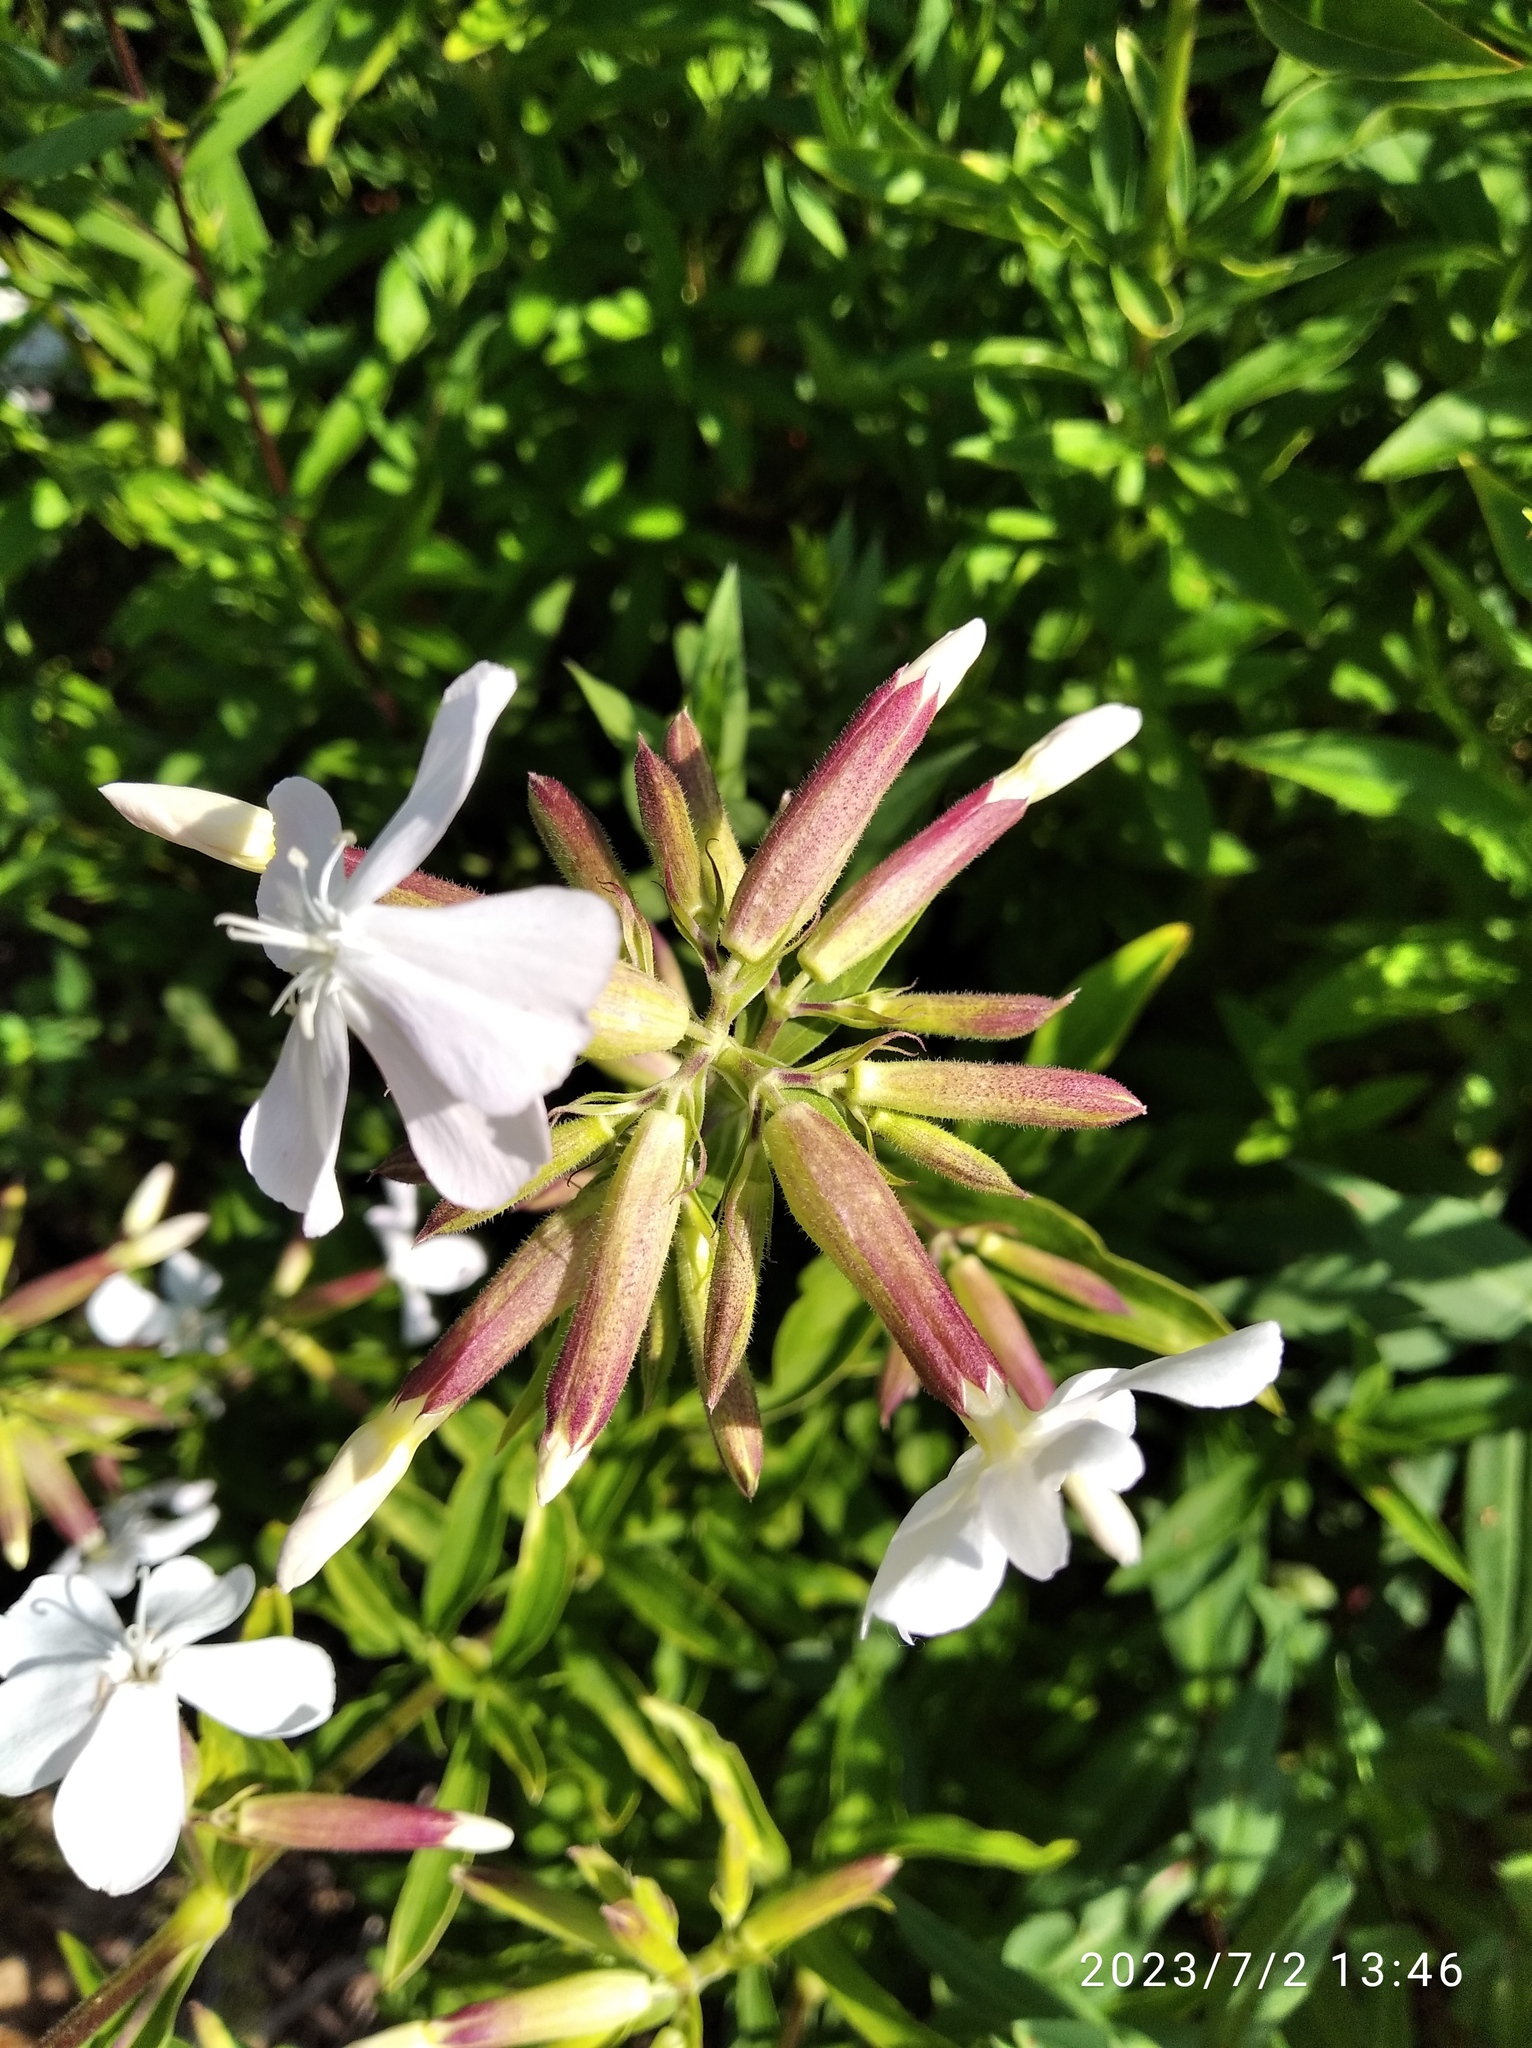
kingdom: Plantae
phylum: Tracheophyta
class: Magnoliopsida
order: Caryophyllales
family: Caryophyllaceae
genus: Saponaria
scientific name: Saponaria officinalis
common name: Soapwort
